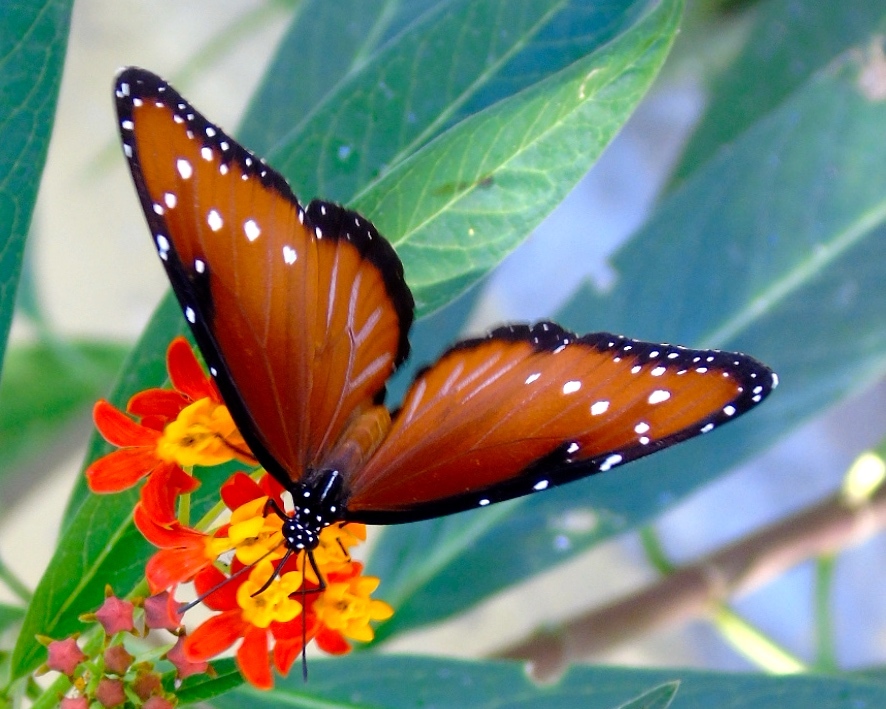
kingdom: Animalia
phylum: Arthropoda
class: Insecta
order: Lepidoptera
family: Nymphalidae
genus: Danaus
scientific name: Danaus gilippus
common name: Queen
